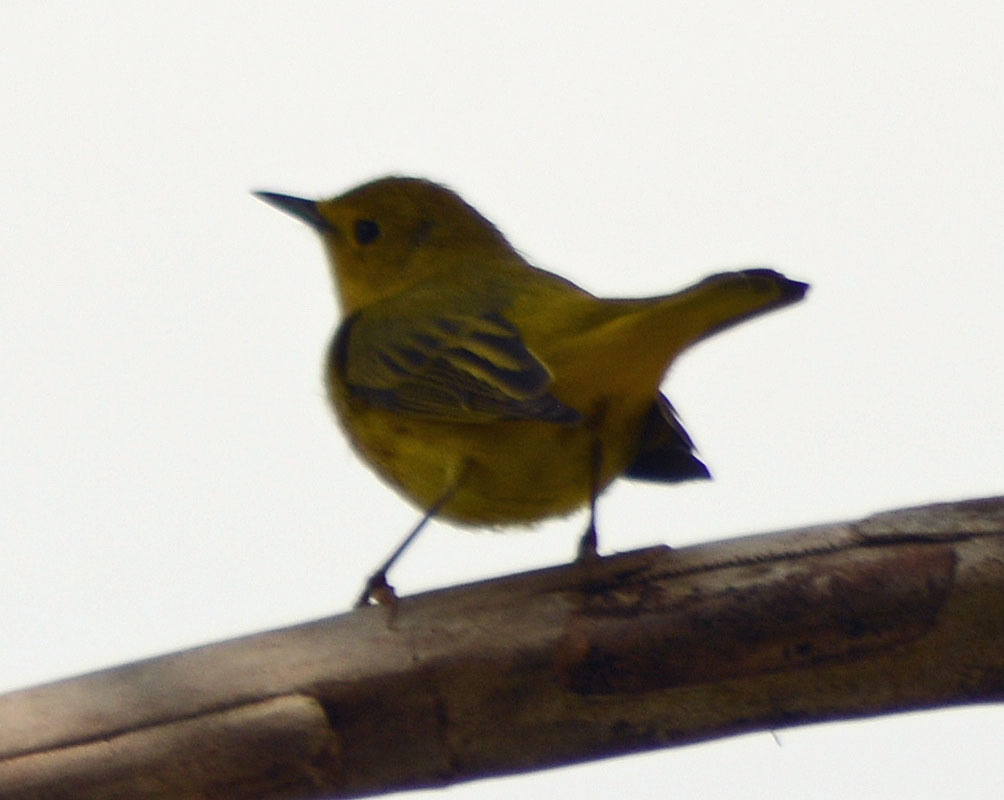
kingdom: Animalia
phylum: Chordata
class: Aves
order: Passeriformes
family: Parulidae
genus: Setophaga
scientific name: Setophaga petechia
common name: Yellow warbler
